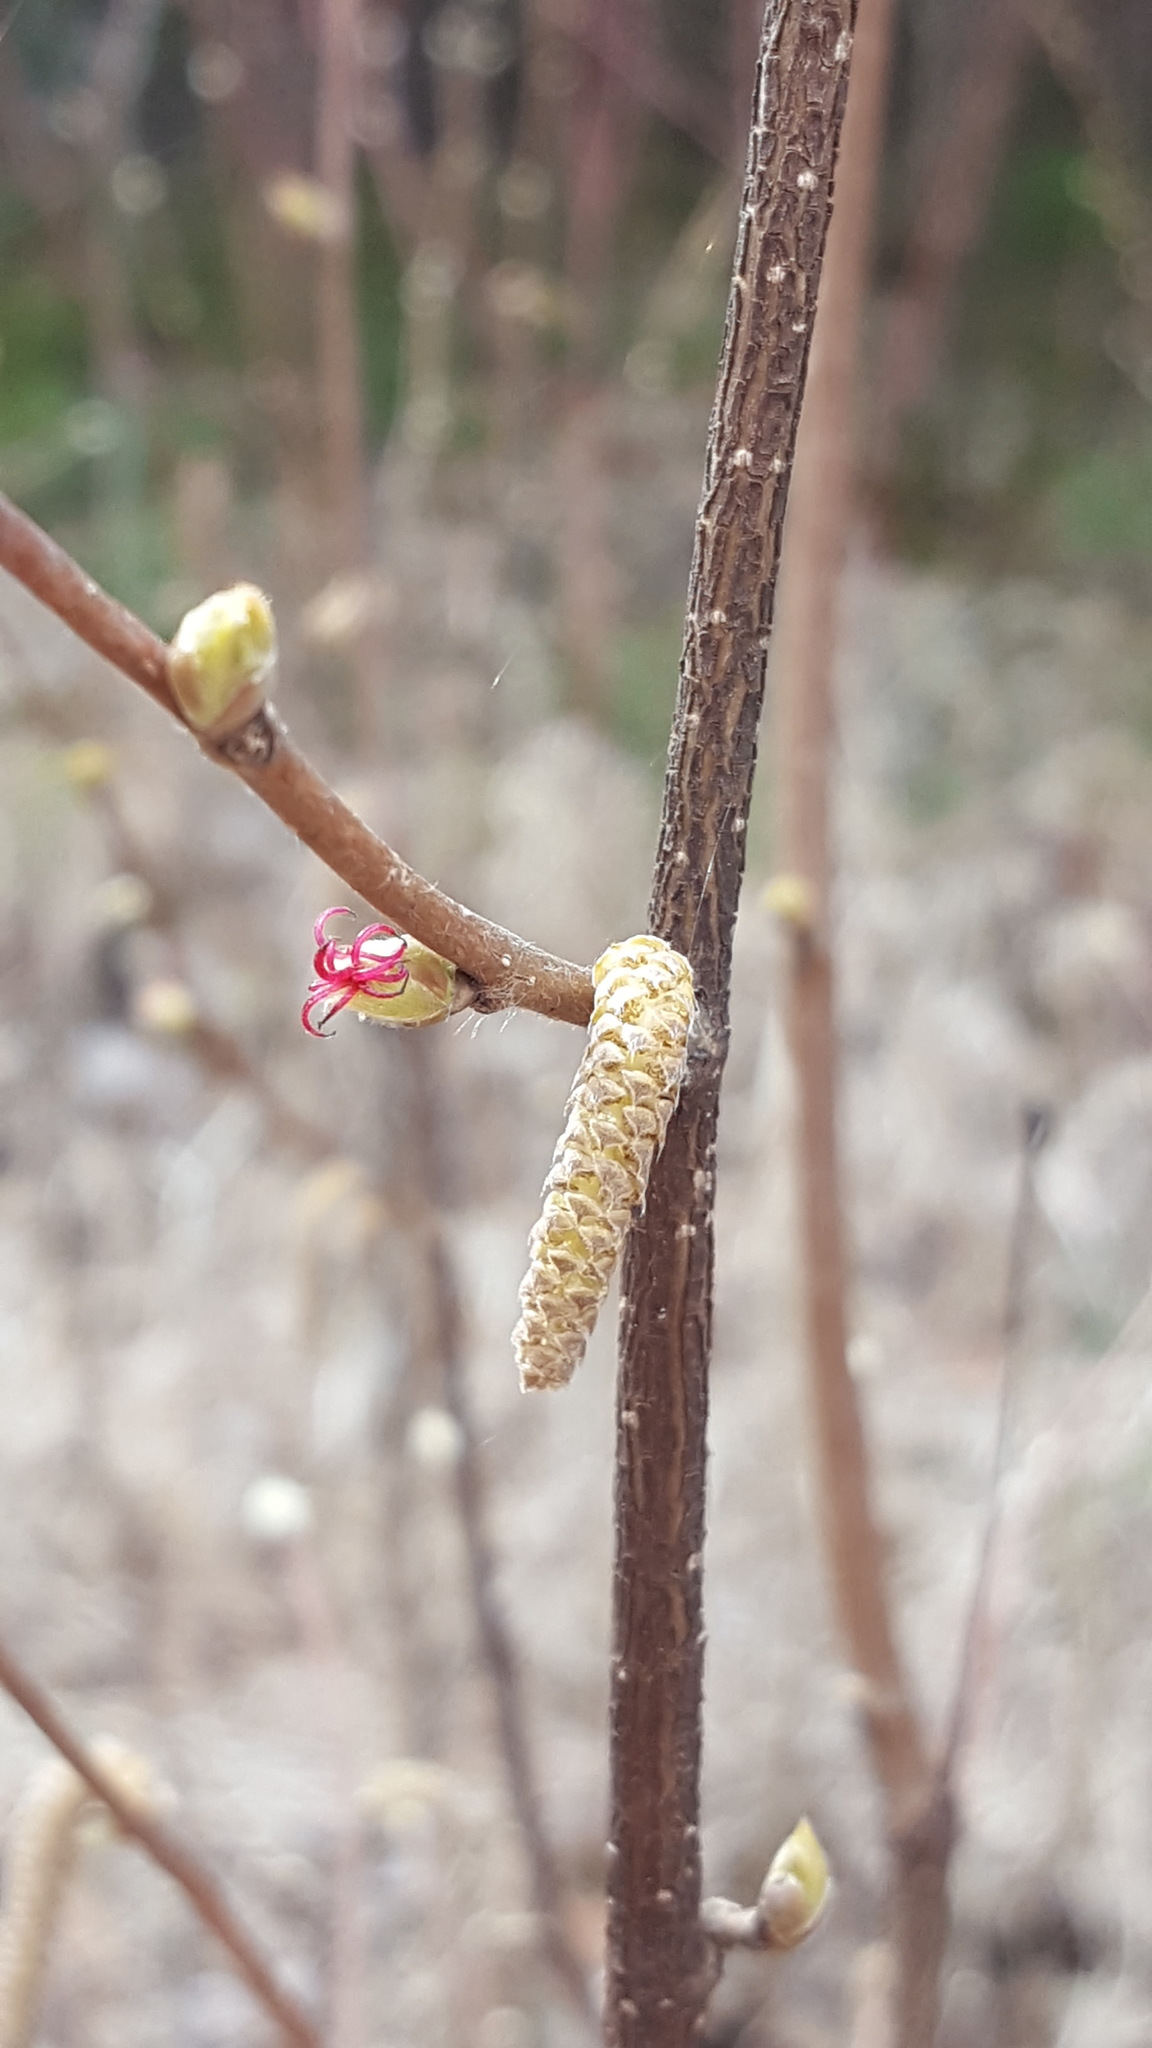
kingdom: Plantae
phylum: Tracheophyta
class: Magnoliopsida
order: Fagales
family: Betulaceae
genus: Corylus
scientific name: Corylus cornuta
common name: Beaked hazel
